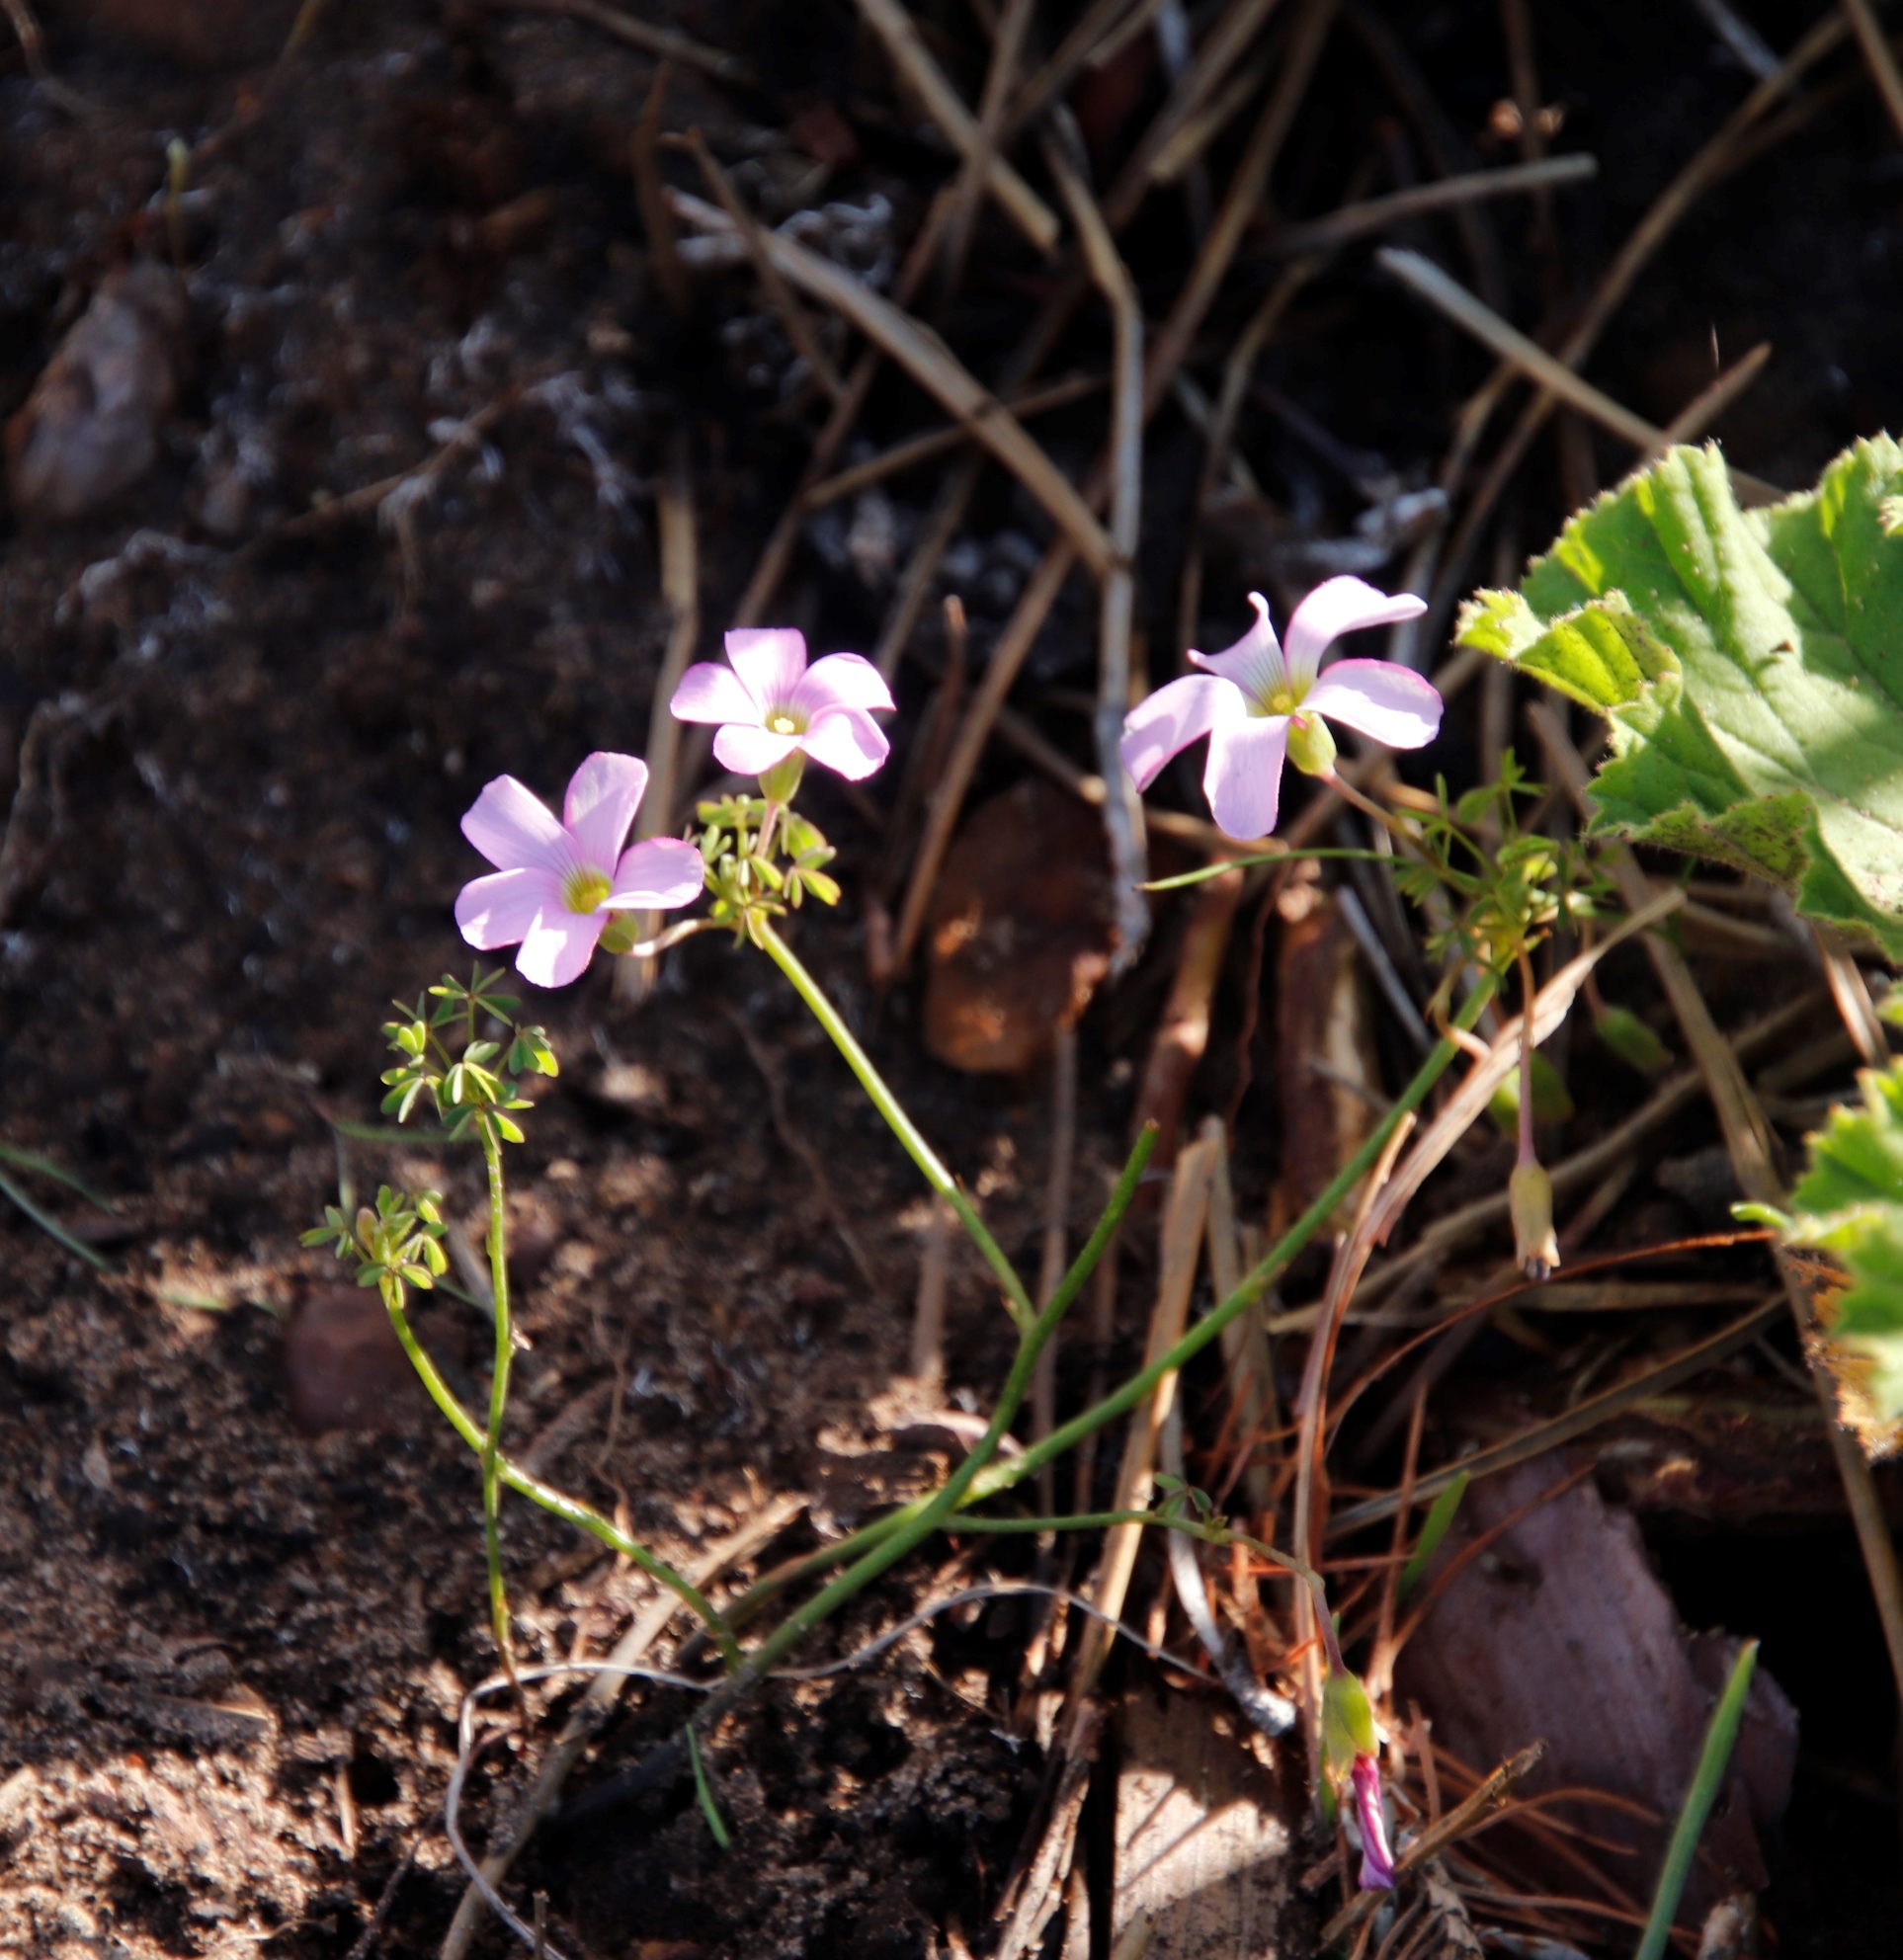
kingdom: Plantae
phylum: Tracheophyta
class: Magnoliopsida
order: Oxalidales
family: Oxalidaceae
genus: Oxalis
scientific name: Oxalis bifida
